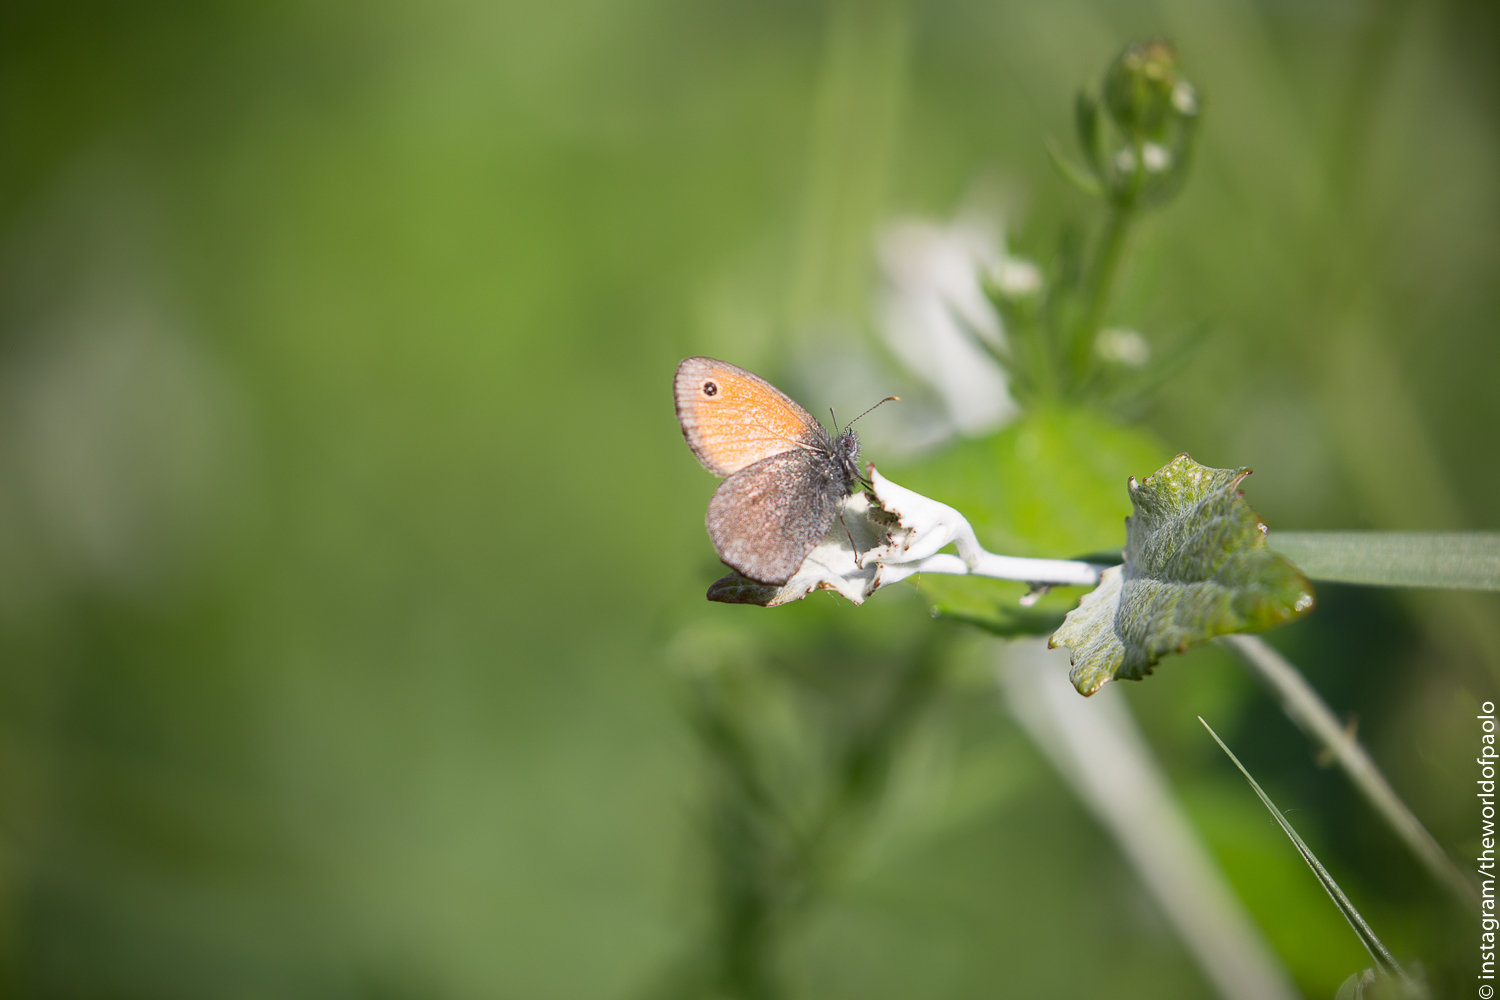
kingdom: Animalia
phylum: Arthropoda
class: Insecta
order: Lepidoptera
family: Nymphalidae
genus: Coenonympha
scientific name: Coenonympha pamphilus
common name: Small heath
